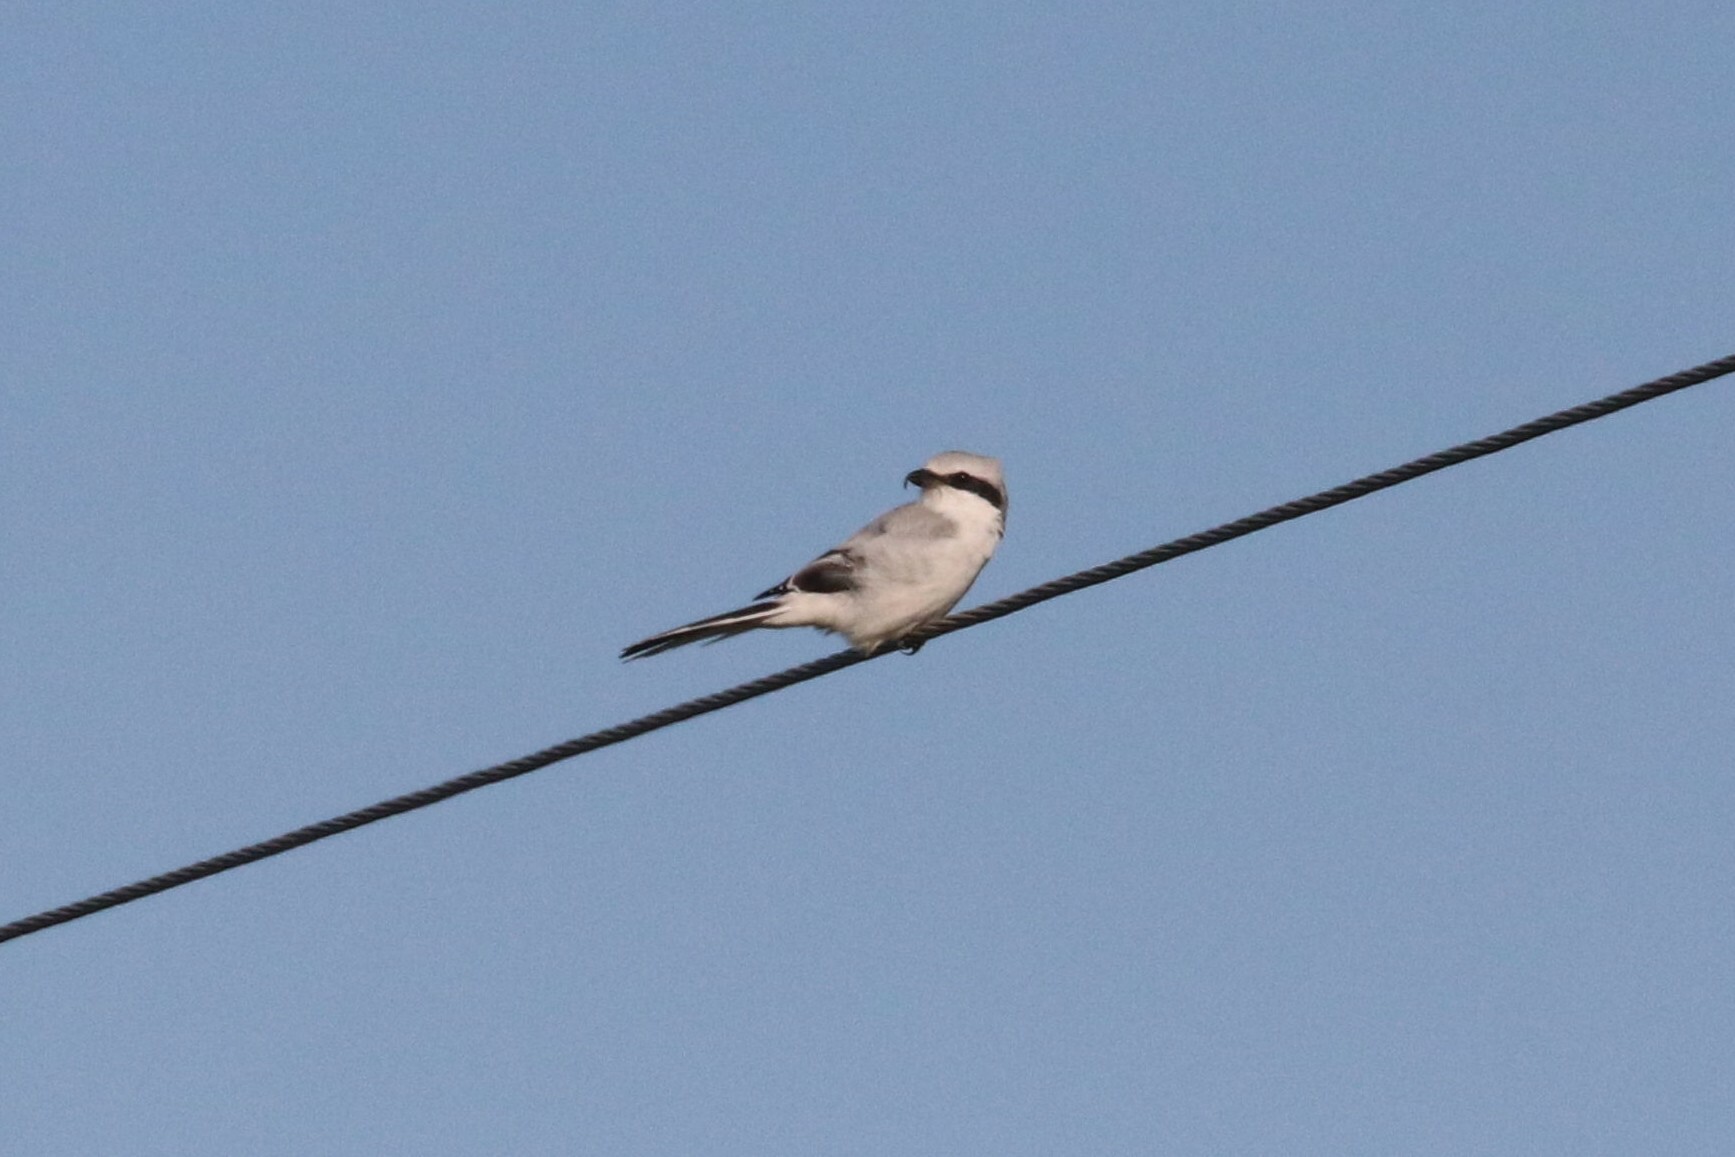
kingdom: Animalia
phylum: Chordata
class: Aves
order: Passeriformes
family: Laniidae
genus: Lanius
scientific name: Lanius excubitor
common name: Great grey shrike
